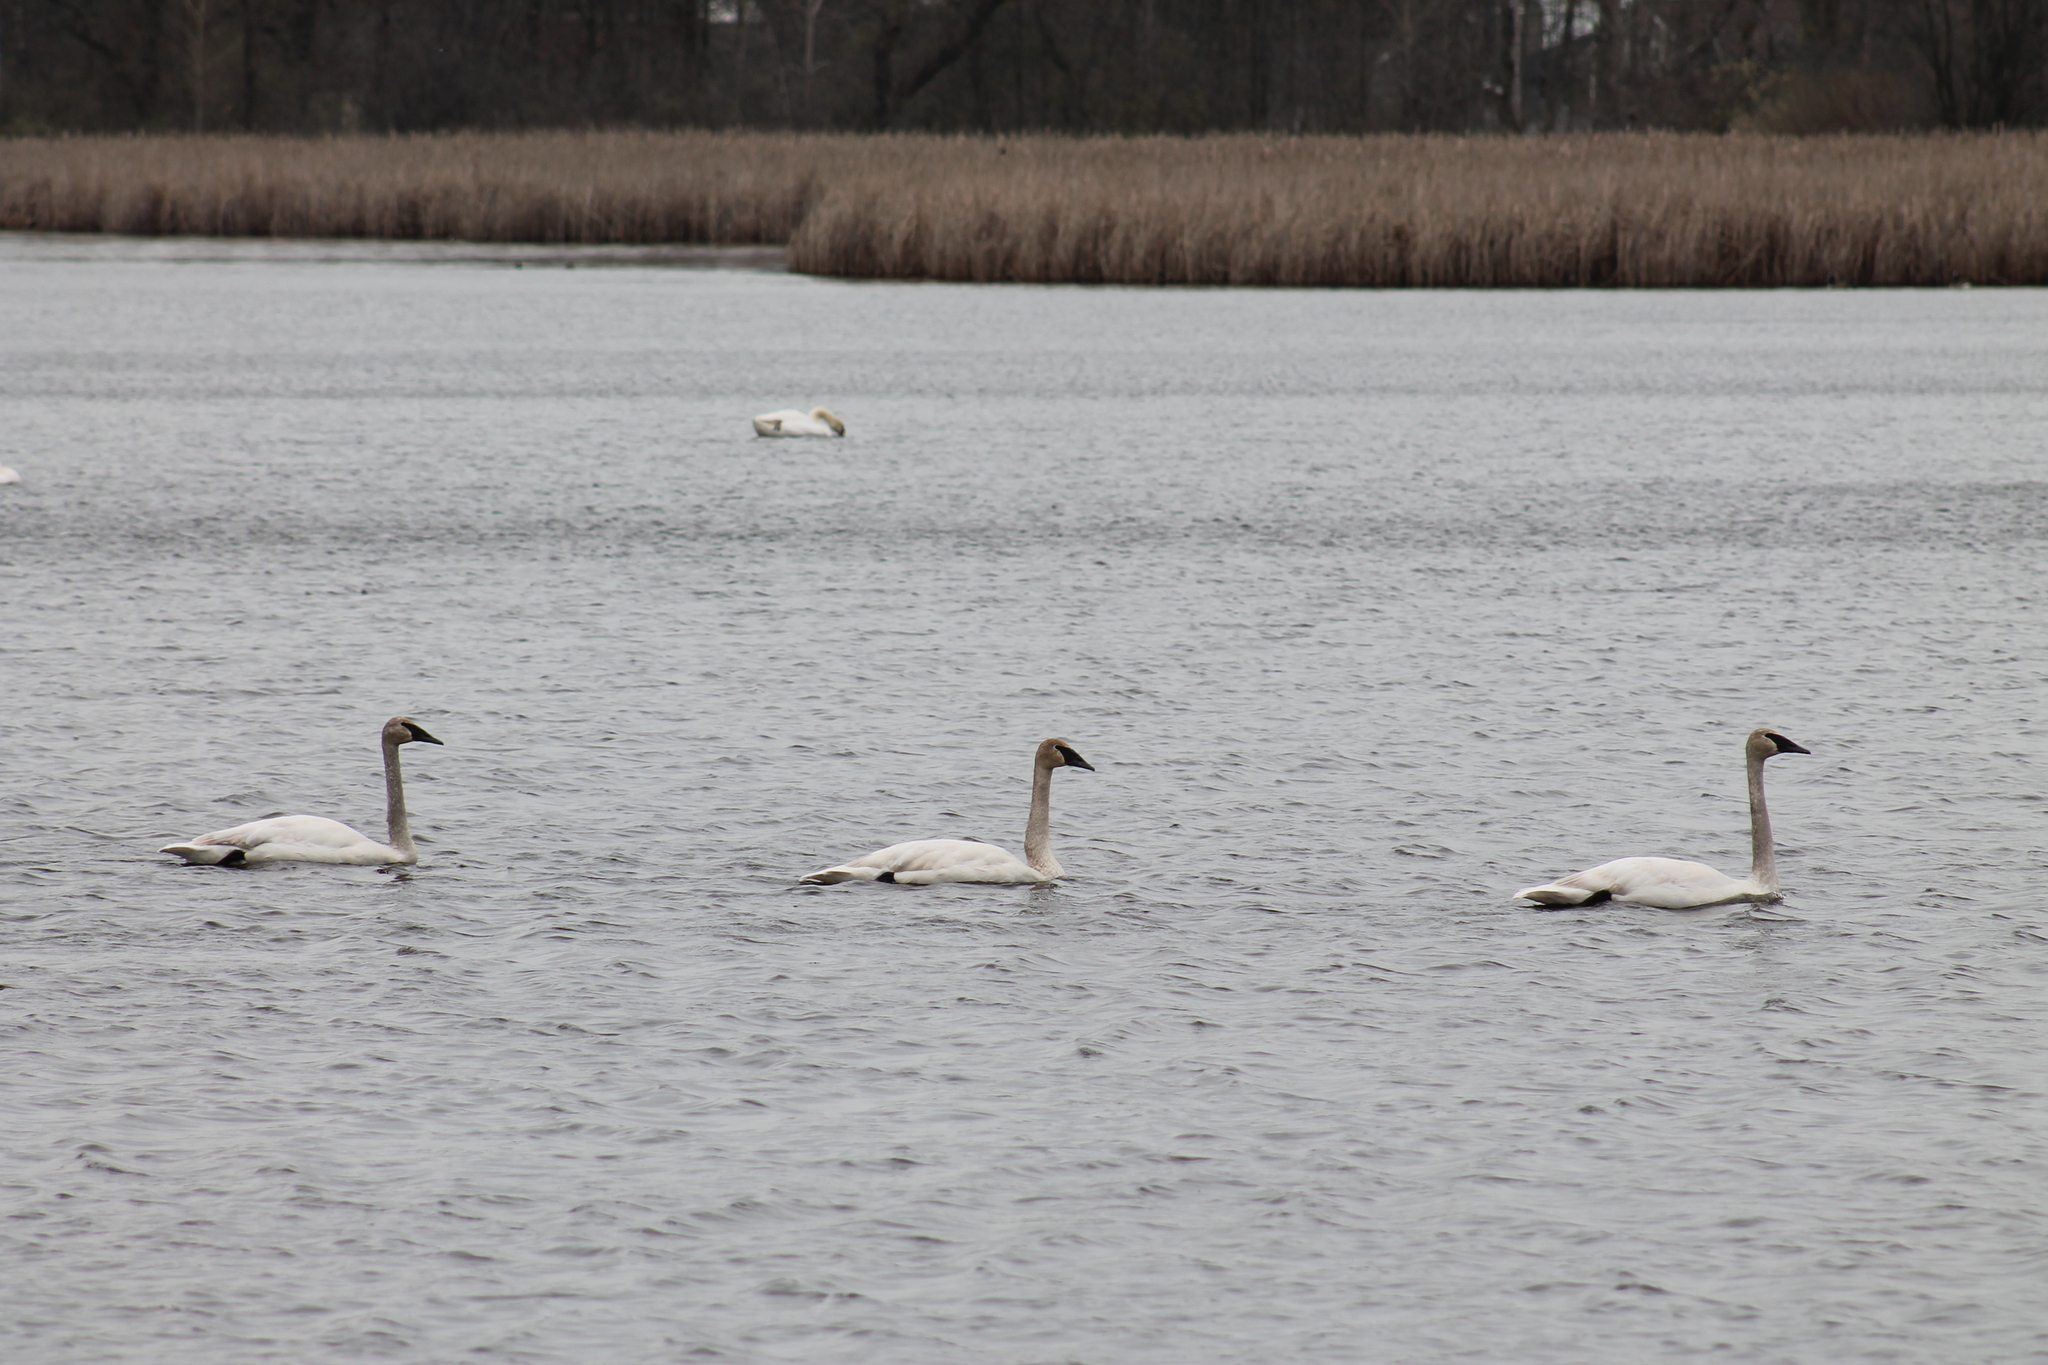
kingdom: Animalia
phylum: Chordata
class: Aves
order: Anseriformes
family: Anatidae
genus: Cygnus
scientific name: Cygnus buccinator
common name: Trumpeter swan
